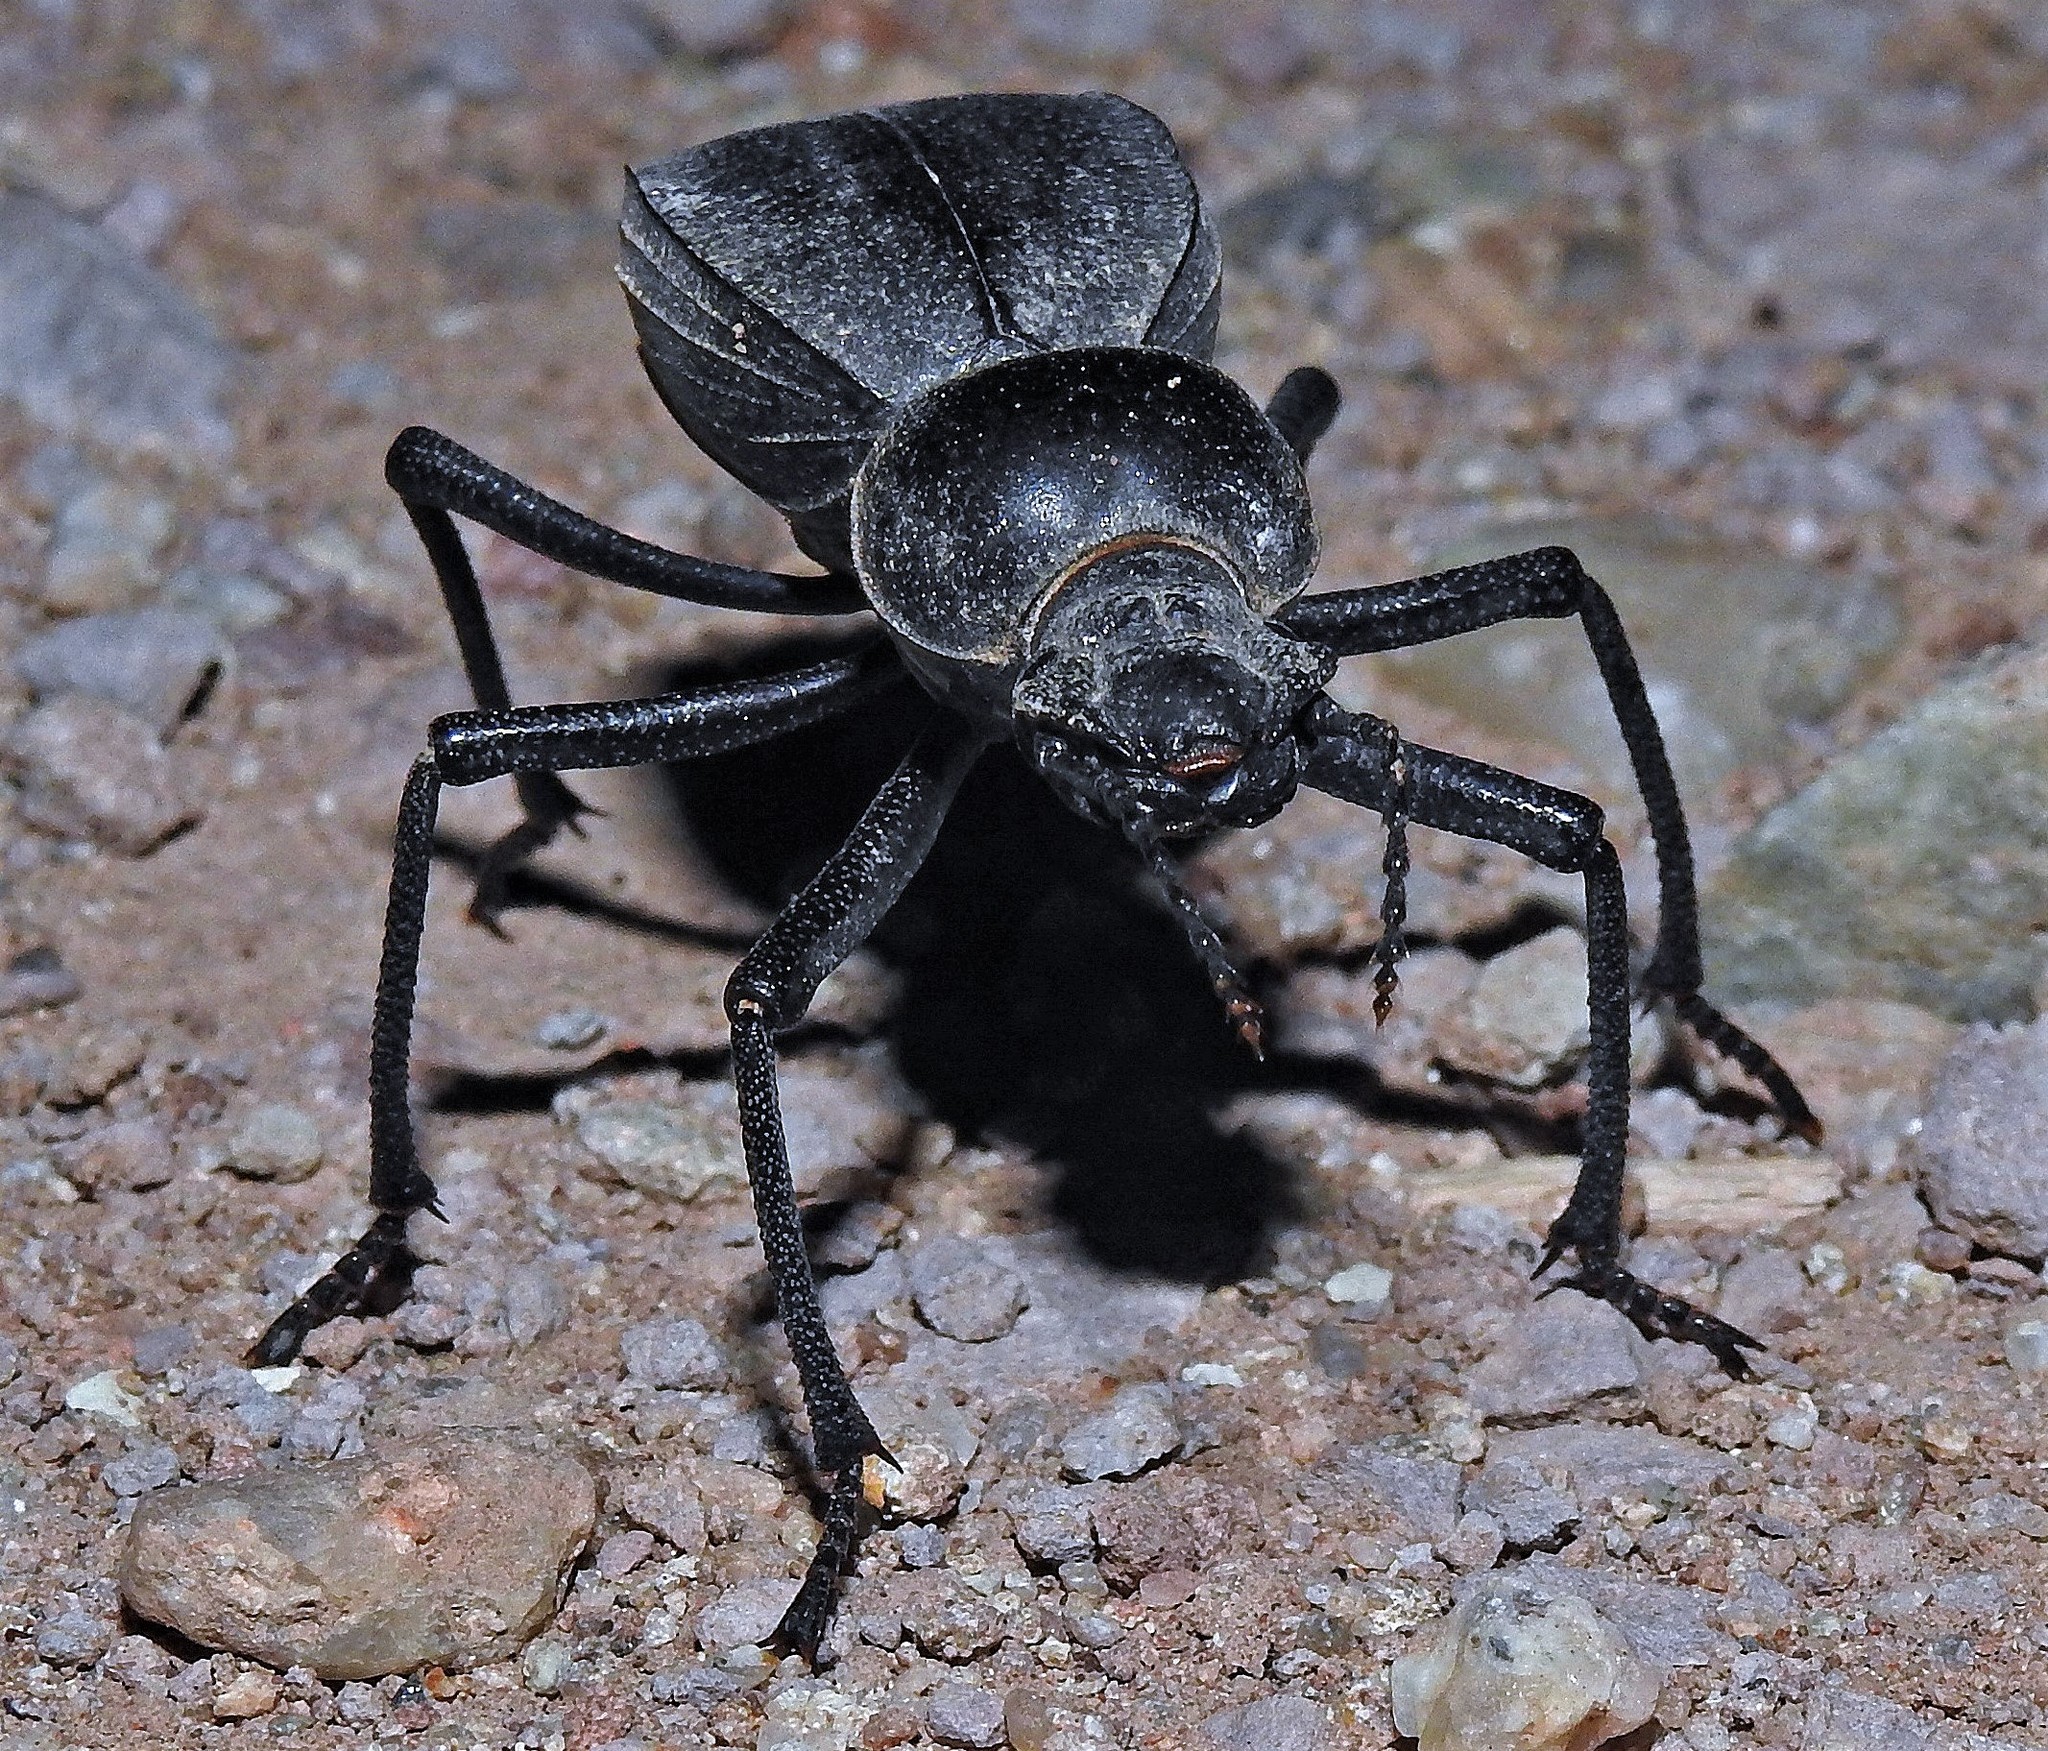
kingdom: Animalia
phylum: Arthropoda
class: Insecta
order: Coleoptera
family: Tenebrionidae
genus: Megelenophorus
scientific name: Megelenophorus
